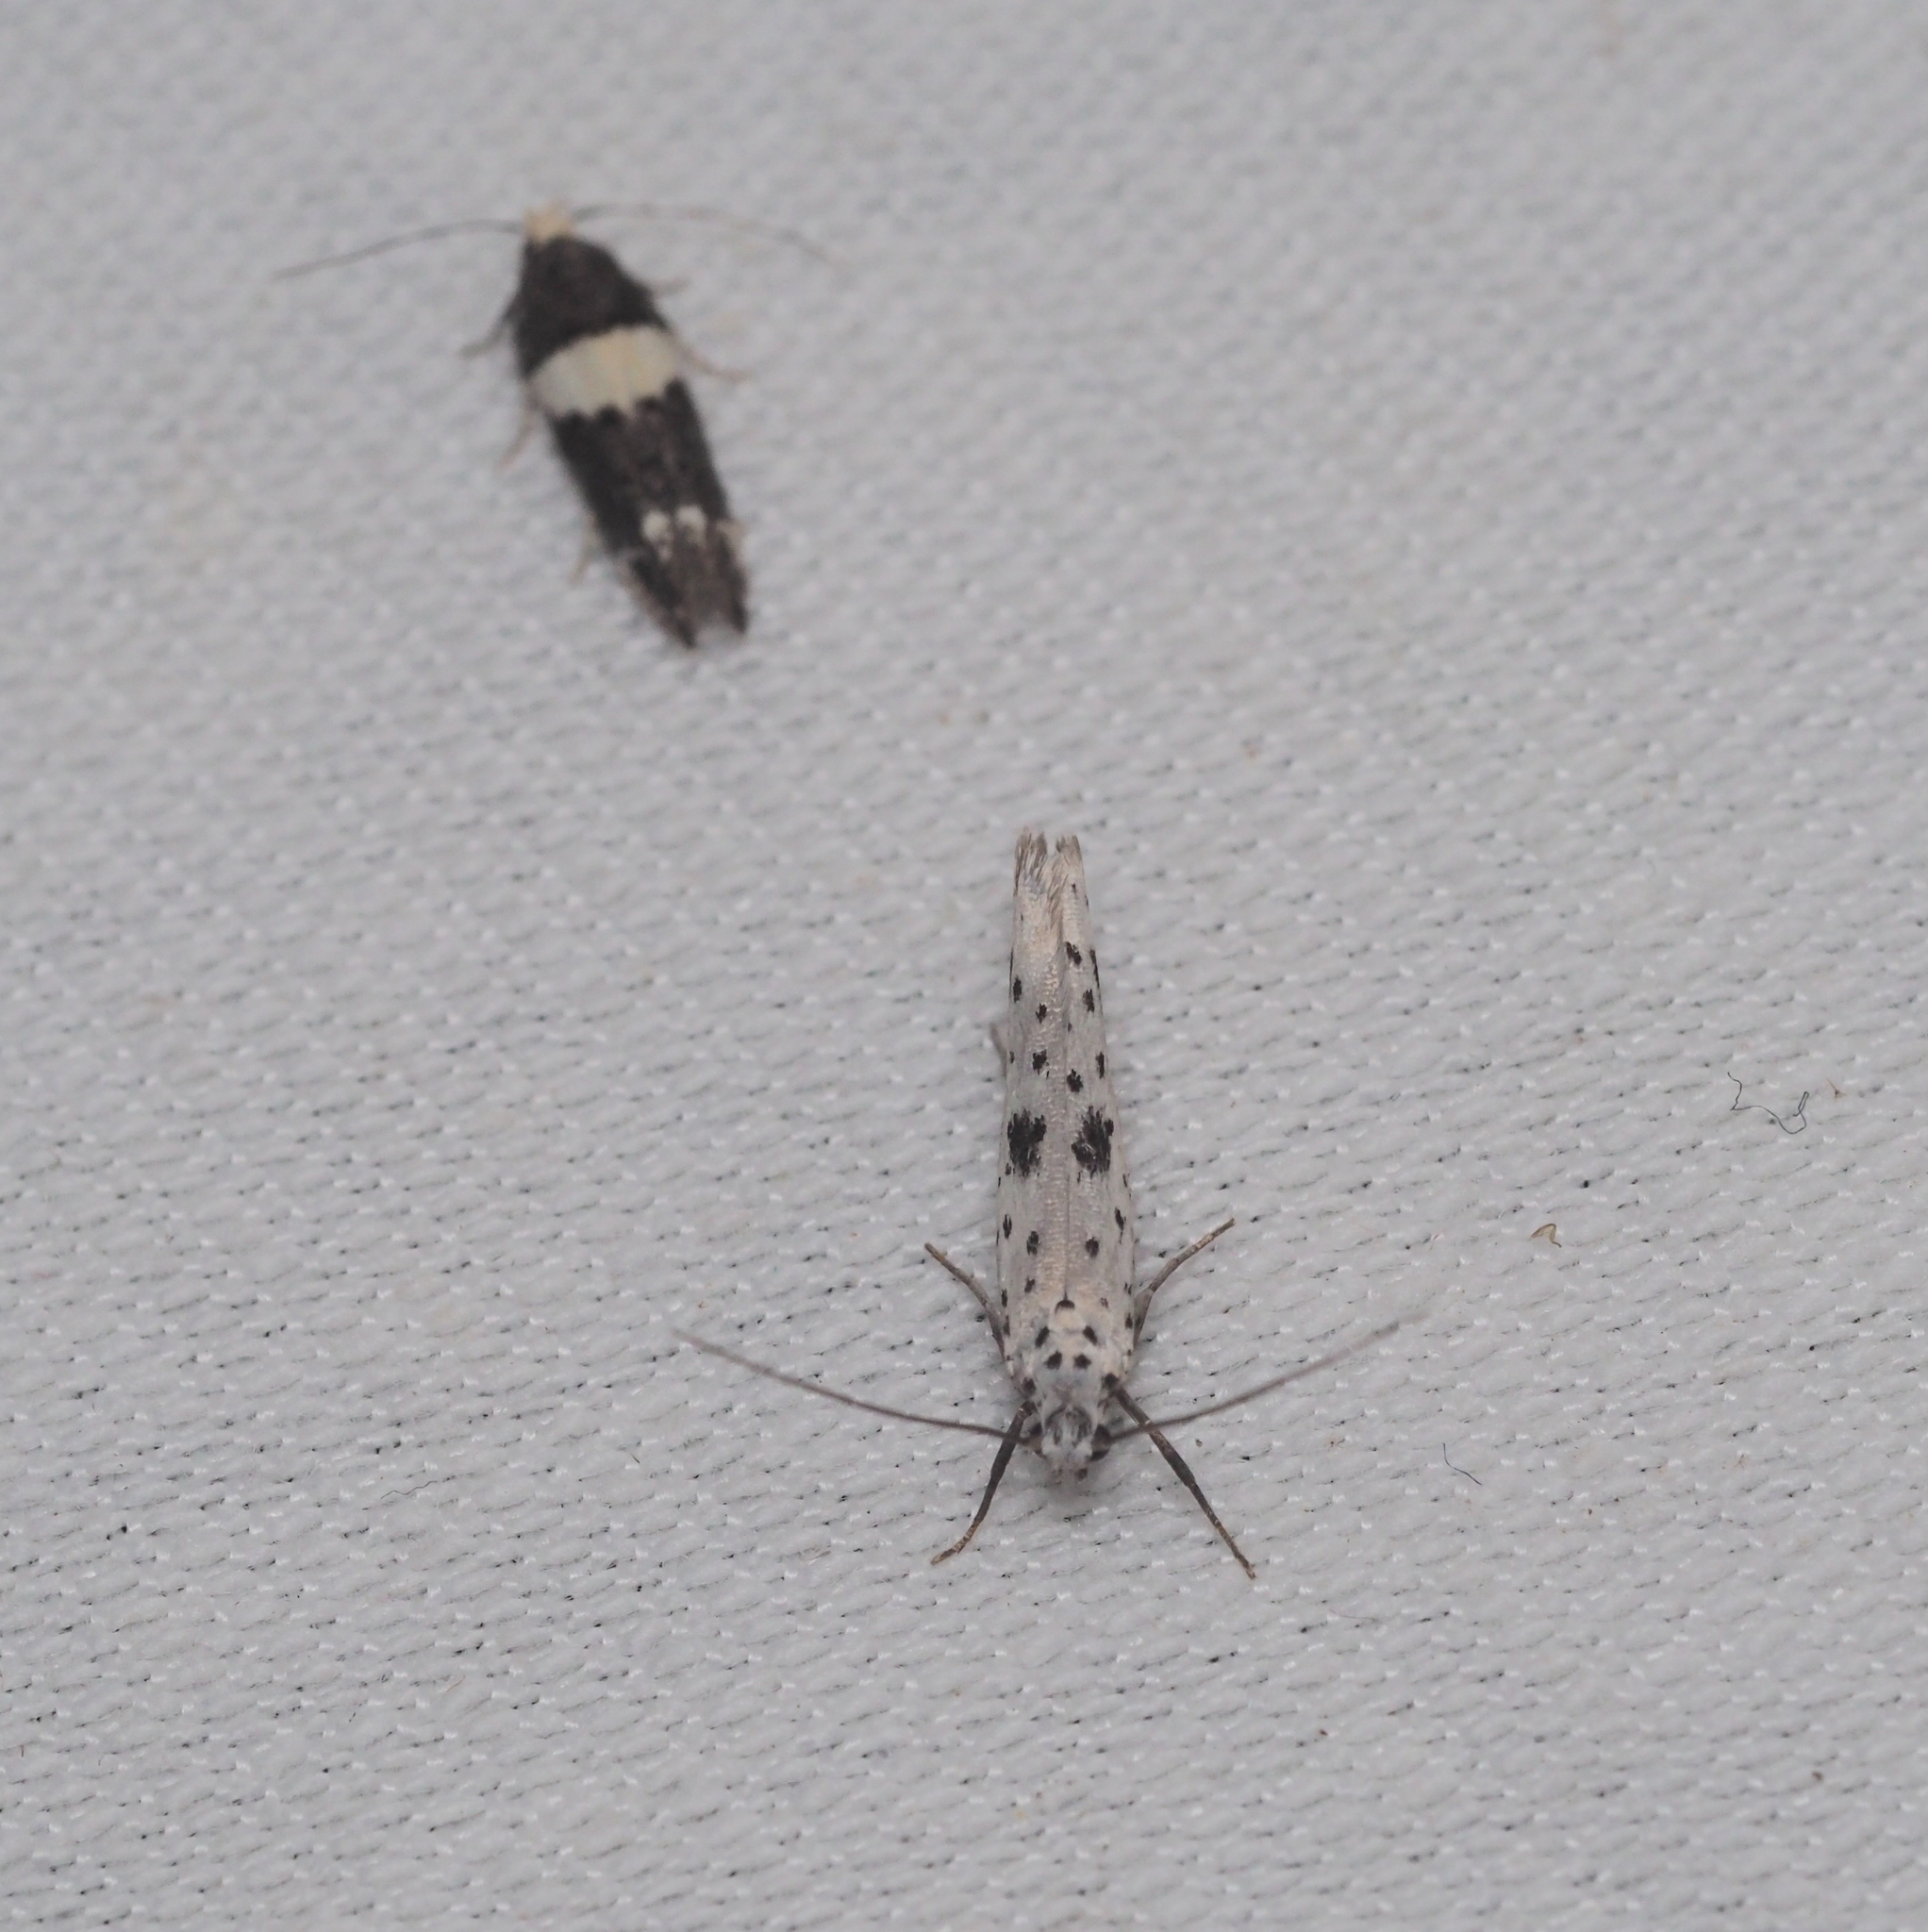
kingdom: Animalia
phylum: Arthropoda
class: Insecta
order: Lepidoptera
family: Yponomeutidae
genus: Yponomeuta
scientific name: Yponomeuta plumbella
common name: Black-tipped ermine
